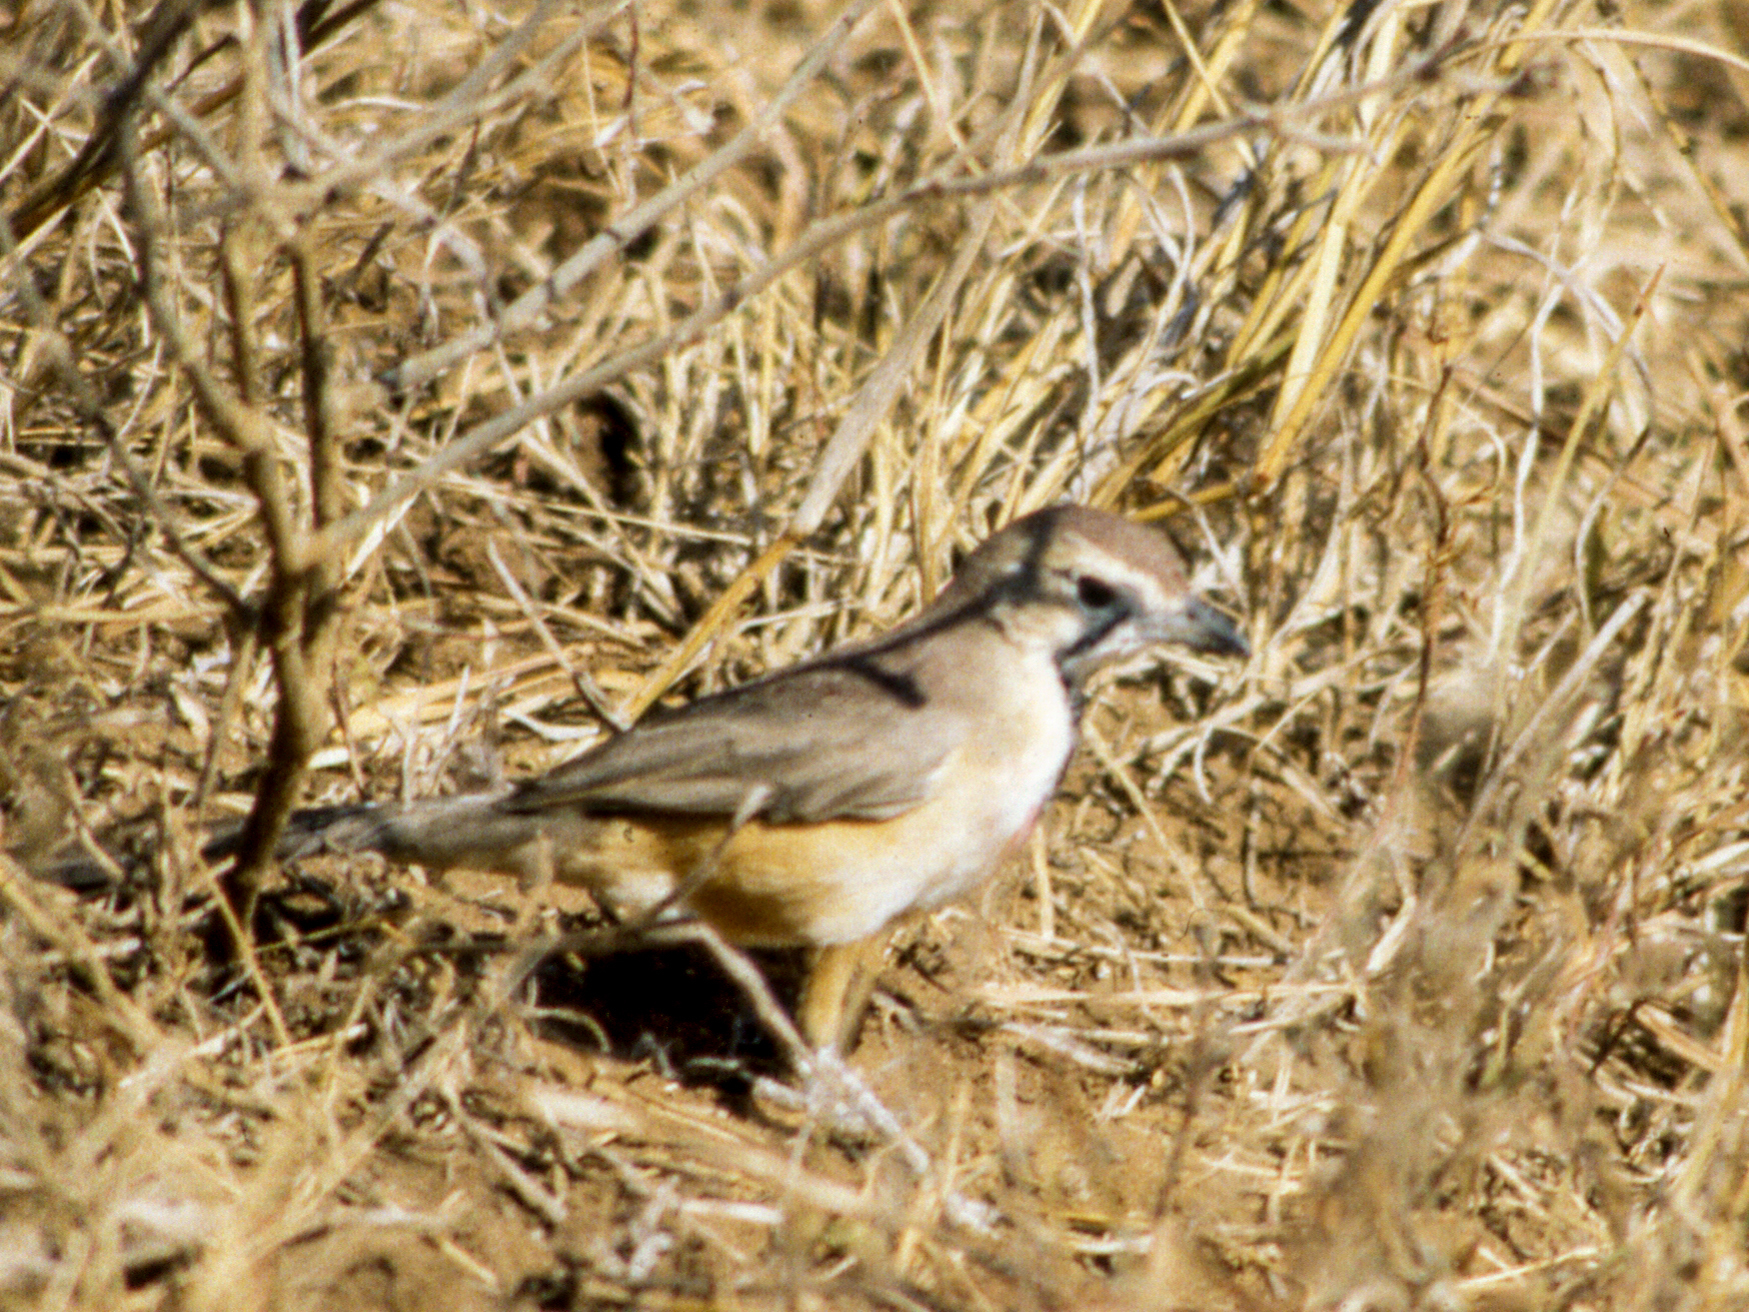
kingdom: Animalia
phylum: Chordata
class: Aves
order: Passeriformes
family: Malaconotidae
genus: Telophorus
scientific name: Telophorus cruentus
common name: Rosy-patched bushshrike
